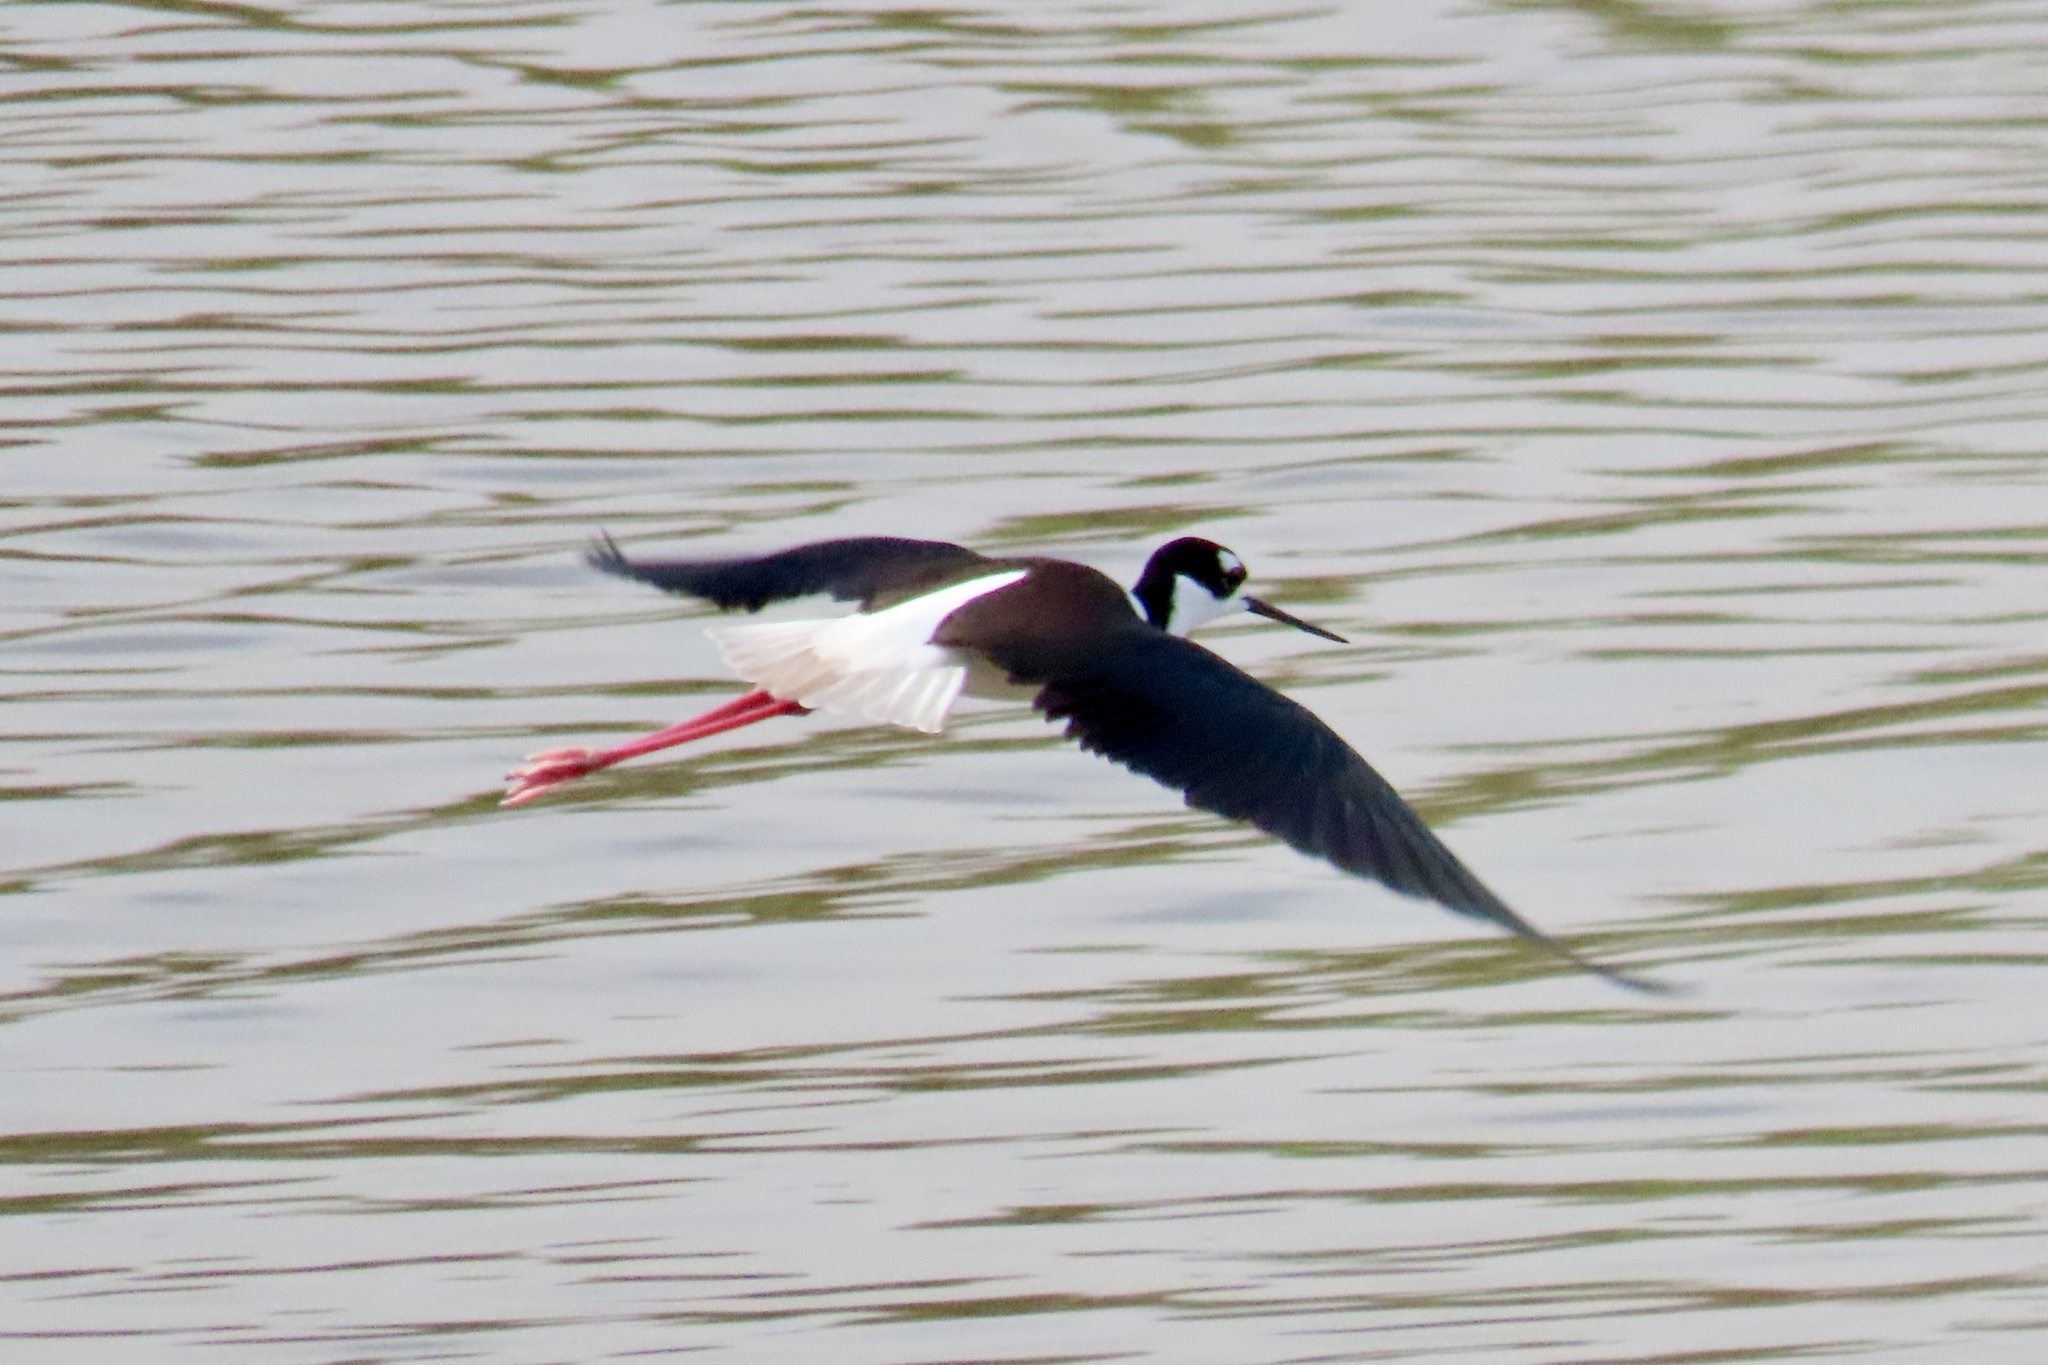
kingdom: Animalia
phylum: Chordata
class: Aves
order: Charadriiformes
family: Recurvirostridae
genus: Himantopus
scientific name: Himantopus mexicanus
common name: Black-necked stilt
